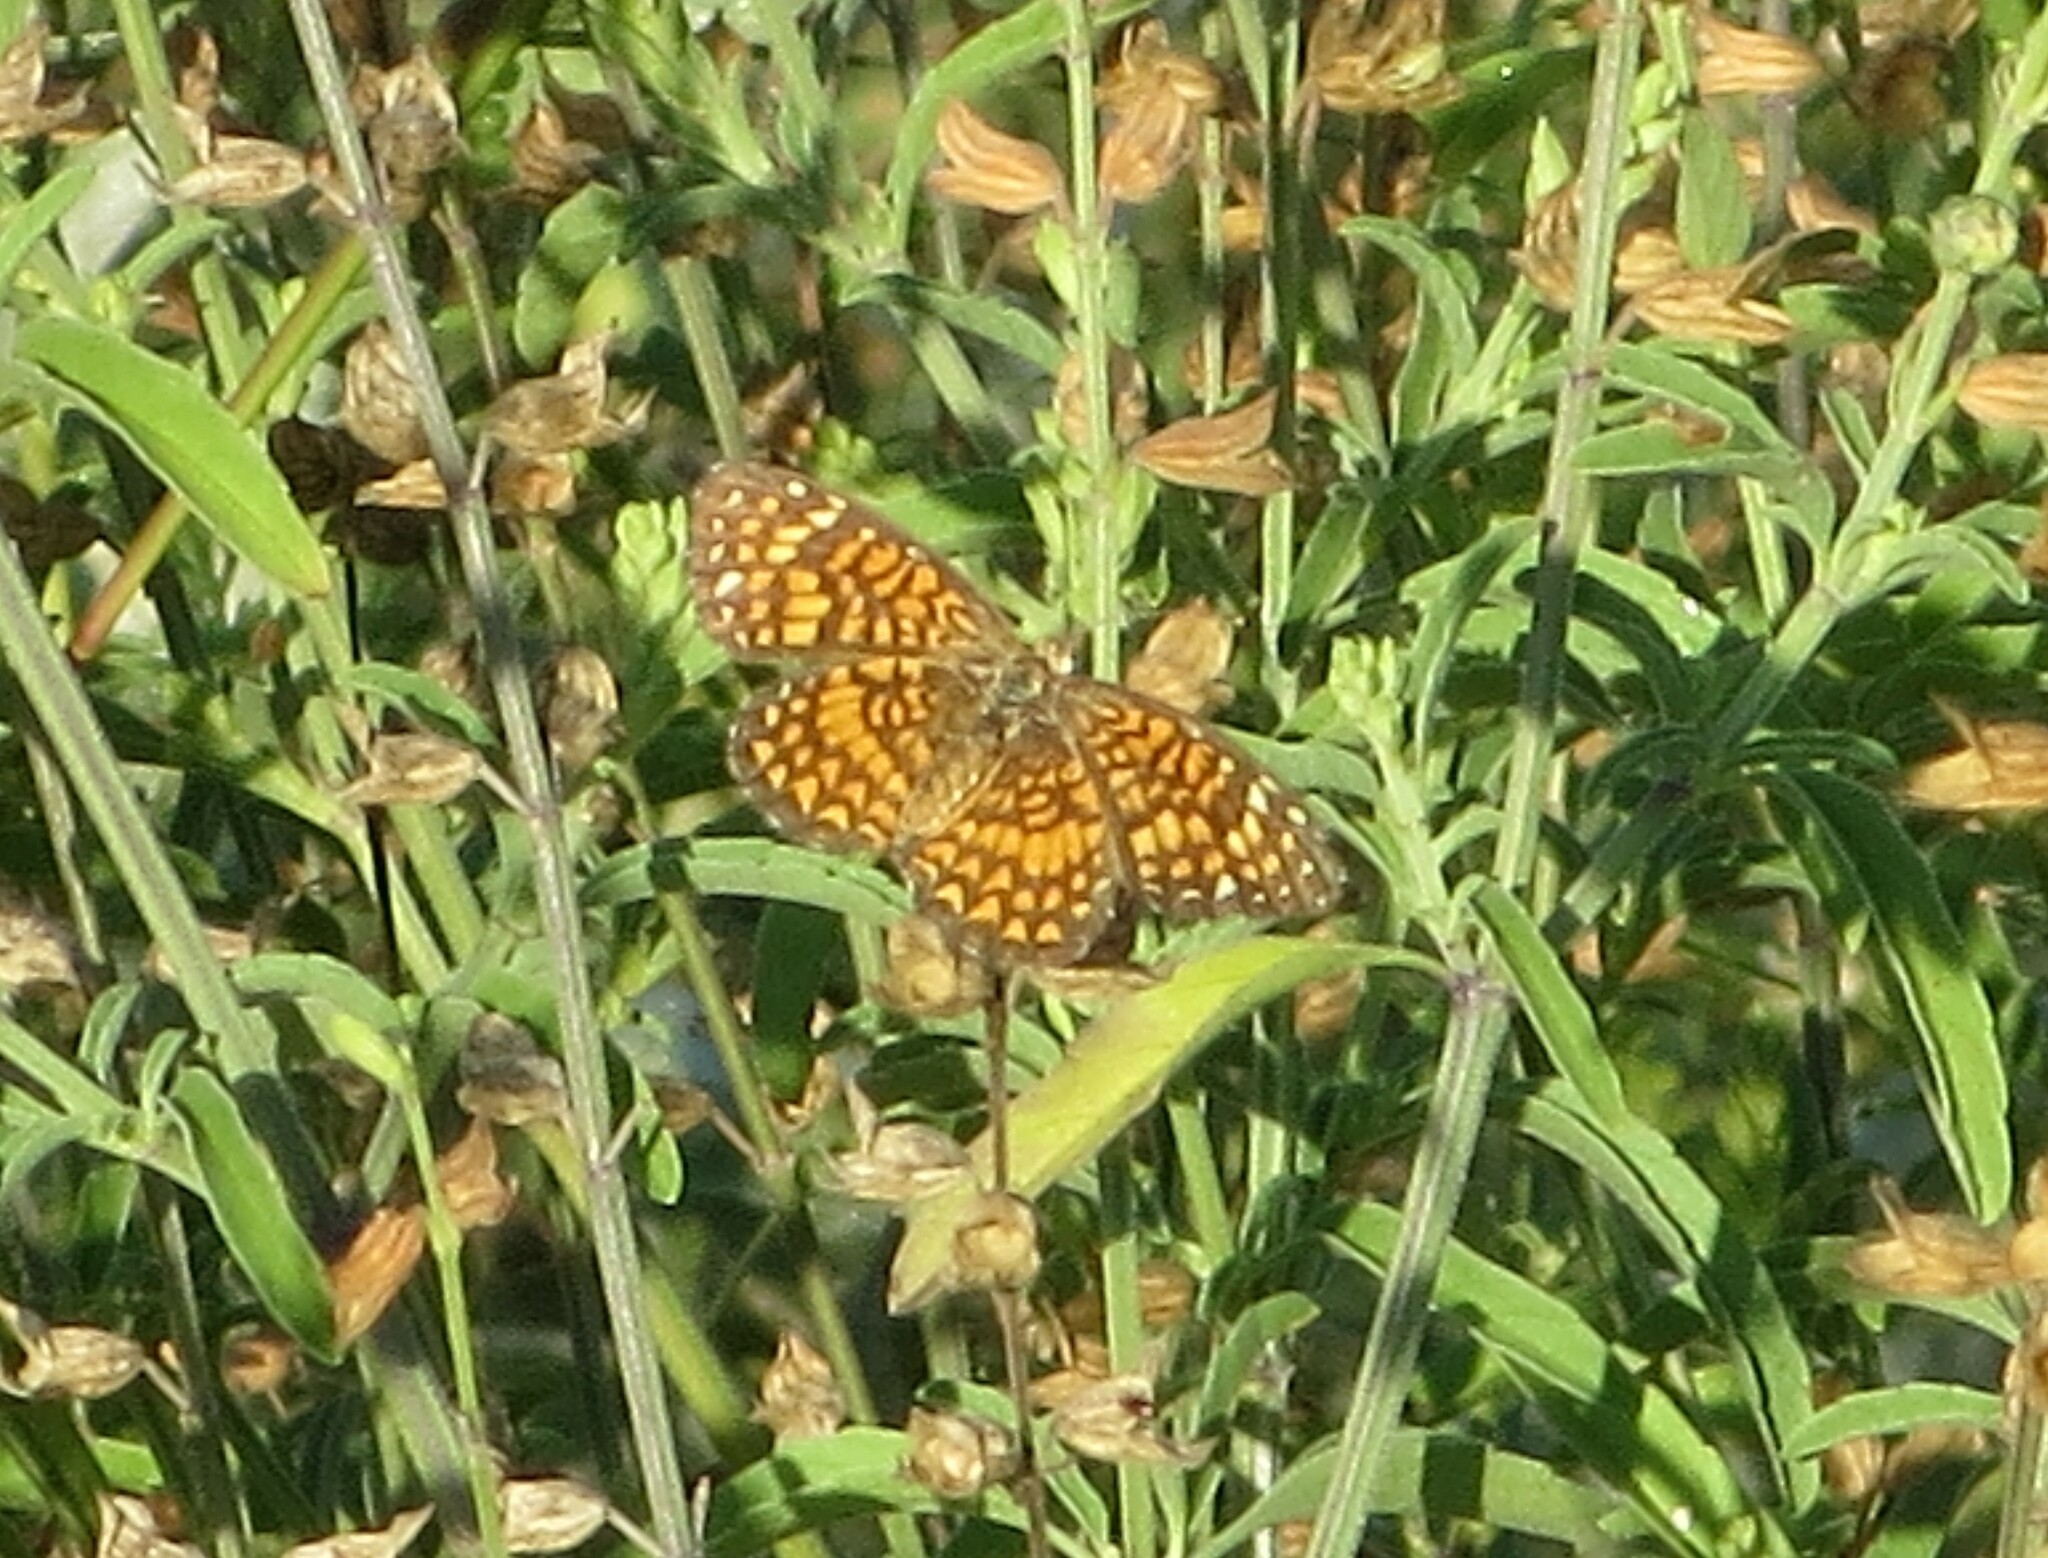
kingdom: Animalia
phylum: Arthropoda
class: Insecta
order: Lepidoptera
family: Nymphalidae
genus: Texola
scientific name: Texola elada
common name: Elada checkerspot
